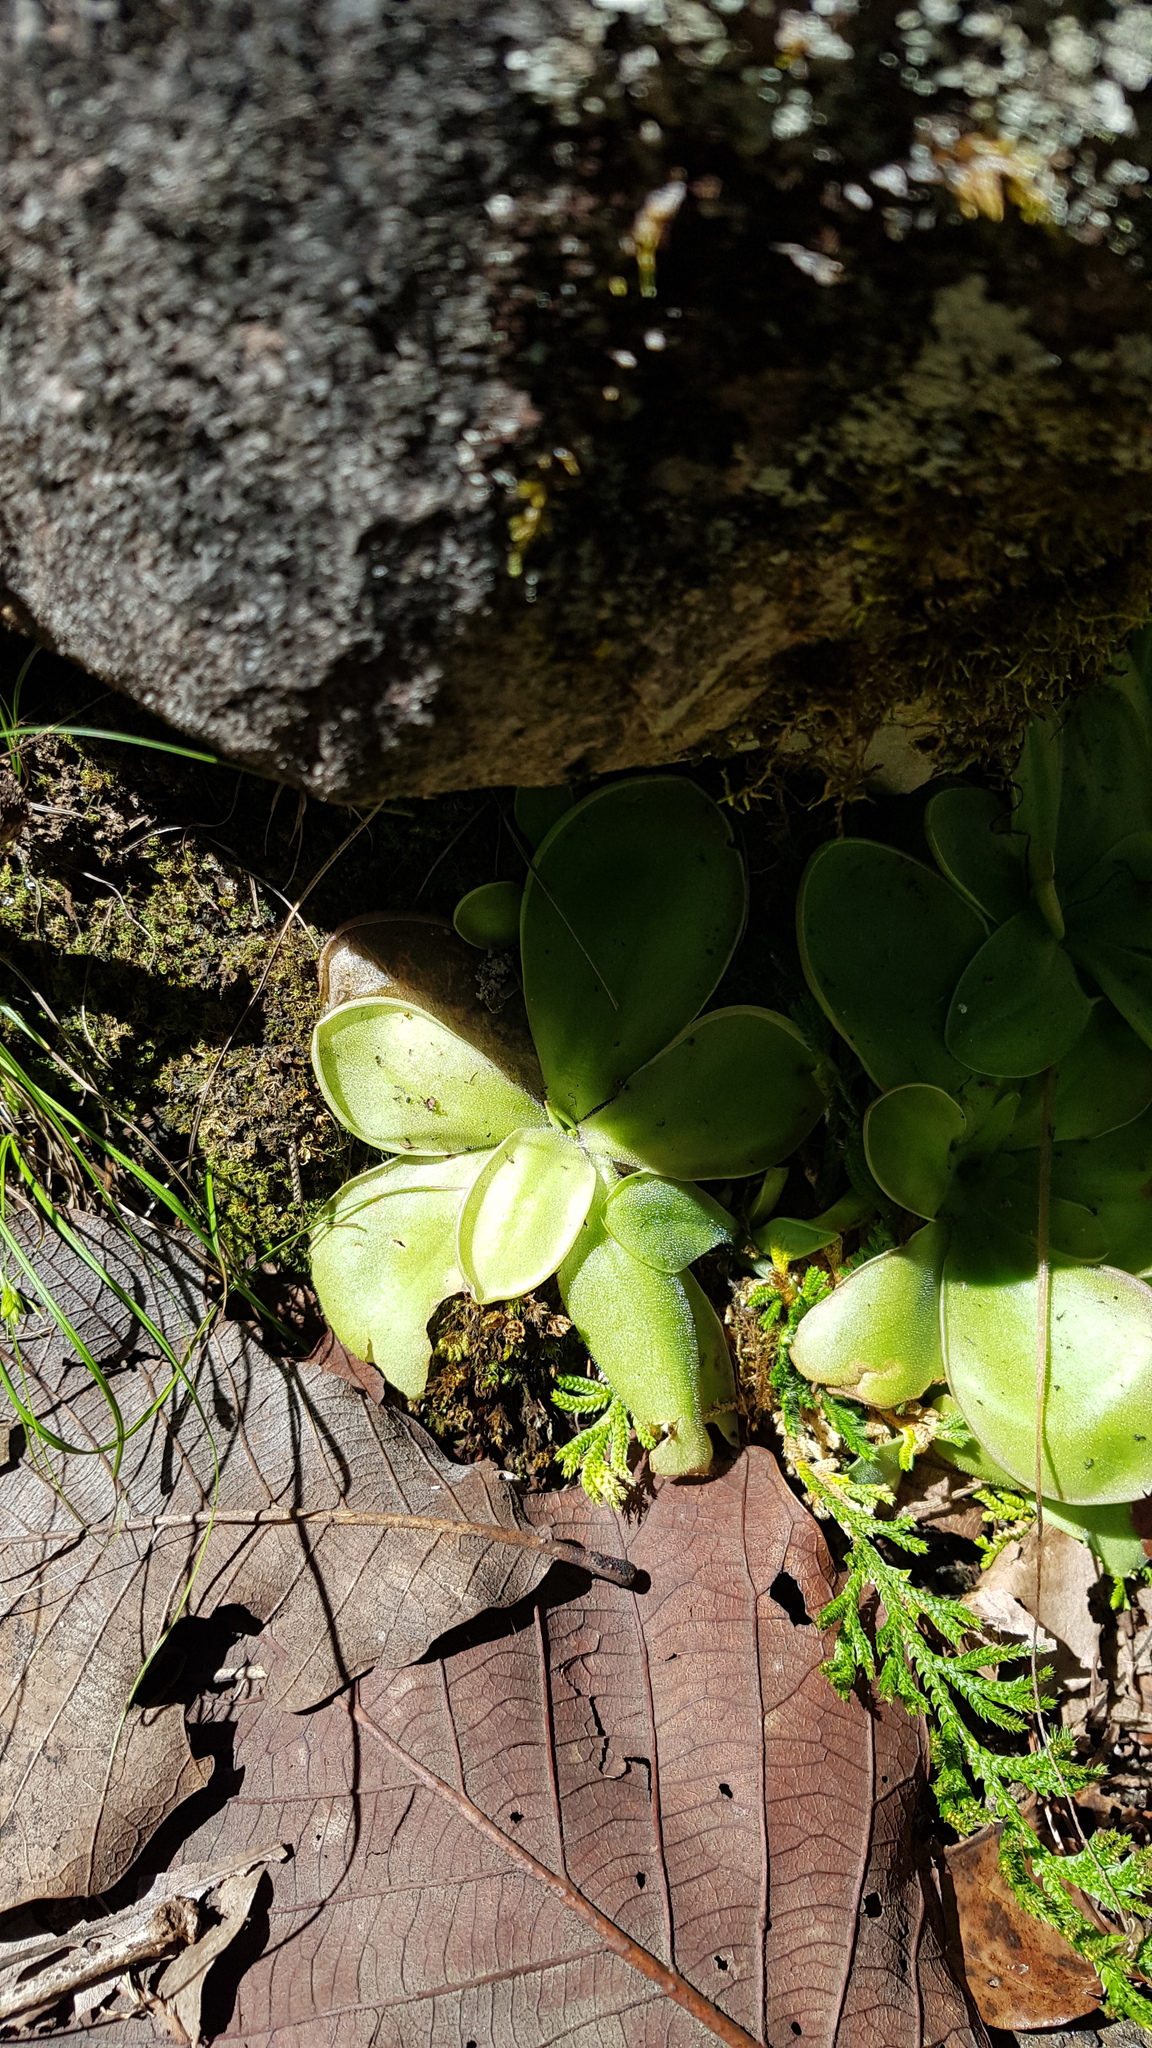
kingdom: Plantae
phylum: Tracheophyta
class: Magnoliopsida
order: Lamiales
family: Lentibulariaceae
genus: Pinguicula
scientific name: Pinguicula moranensis
